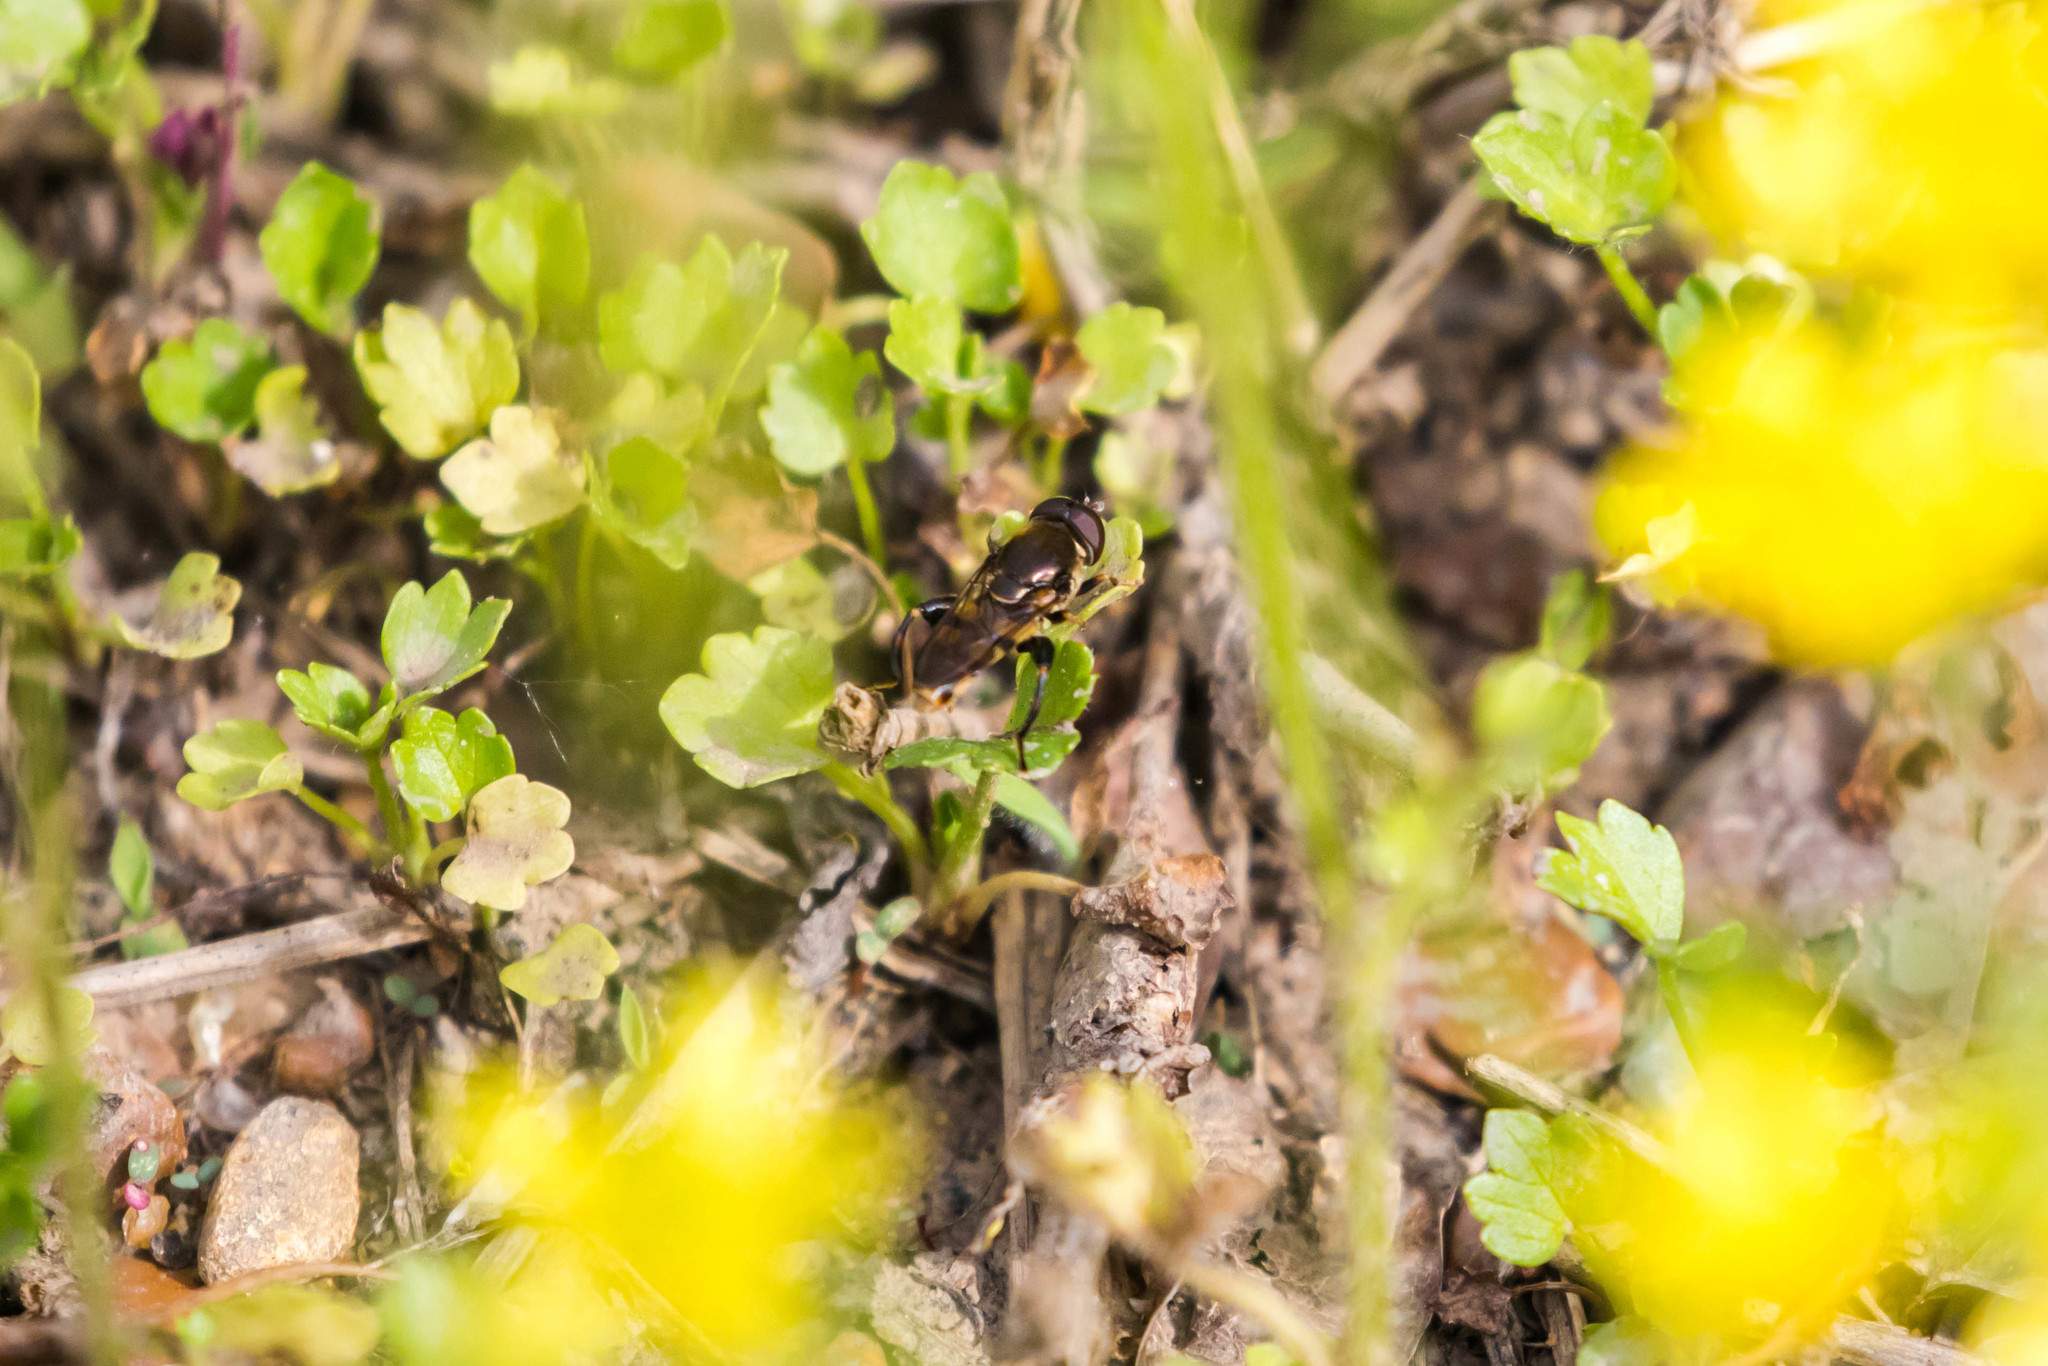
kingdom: Animalia
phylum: Arthropoda
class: Insecta
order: Diptera
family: Syrphidae
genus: Tropidia
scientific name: Tropidia albistylum
